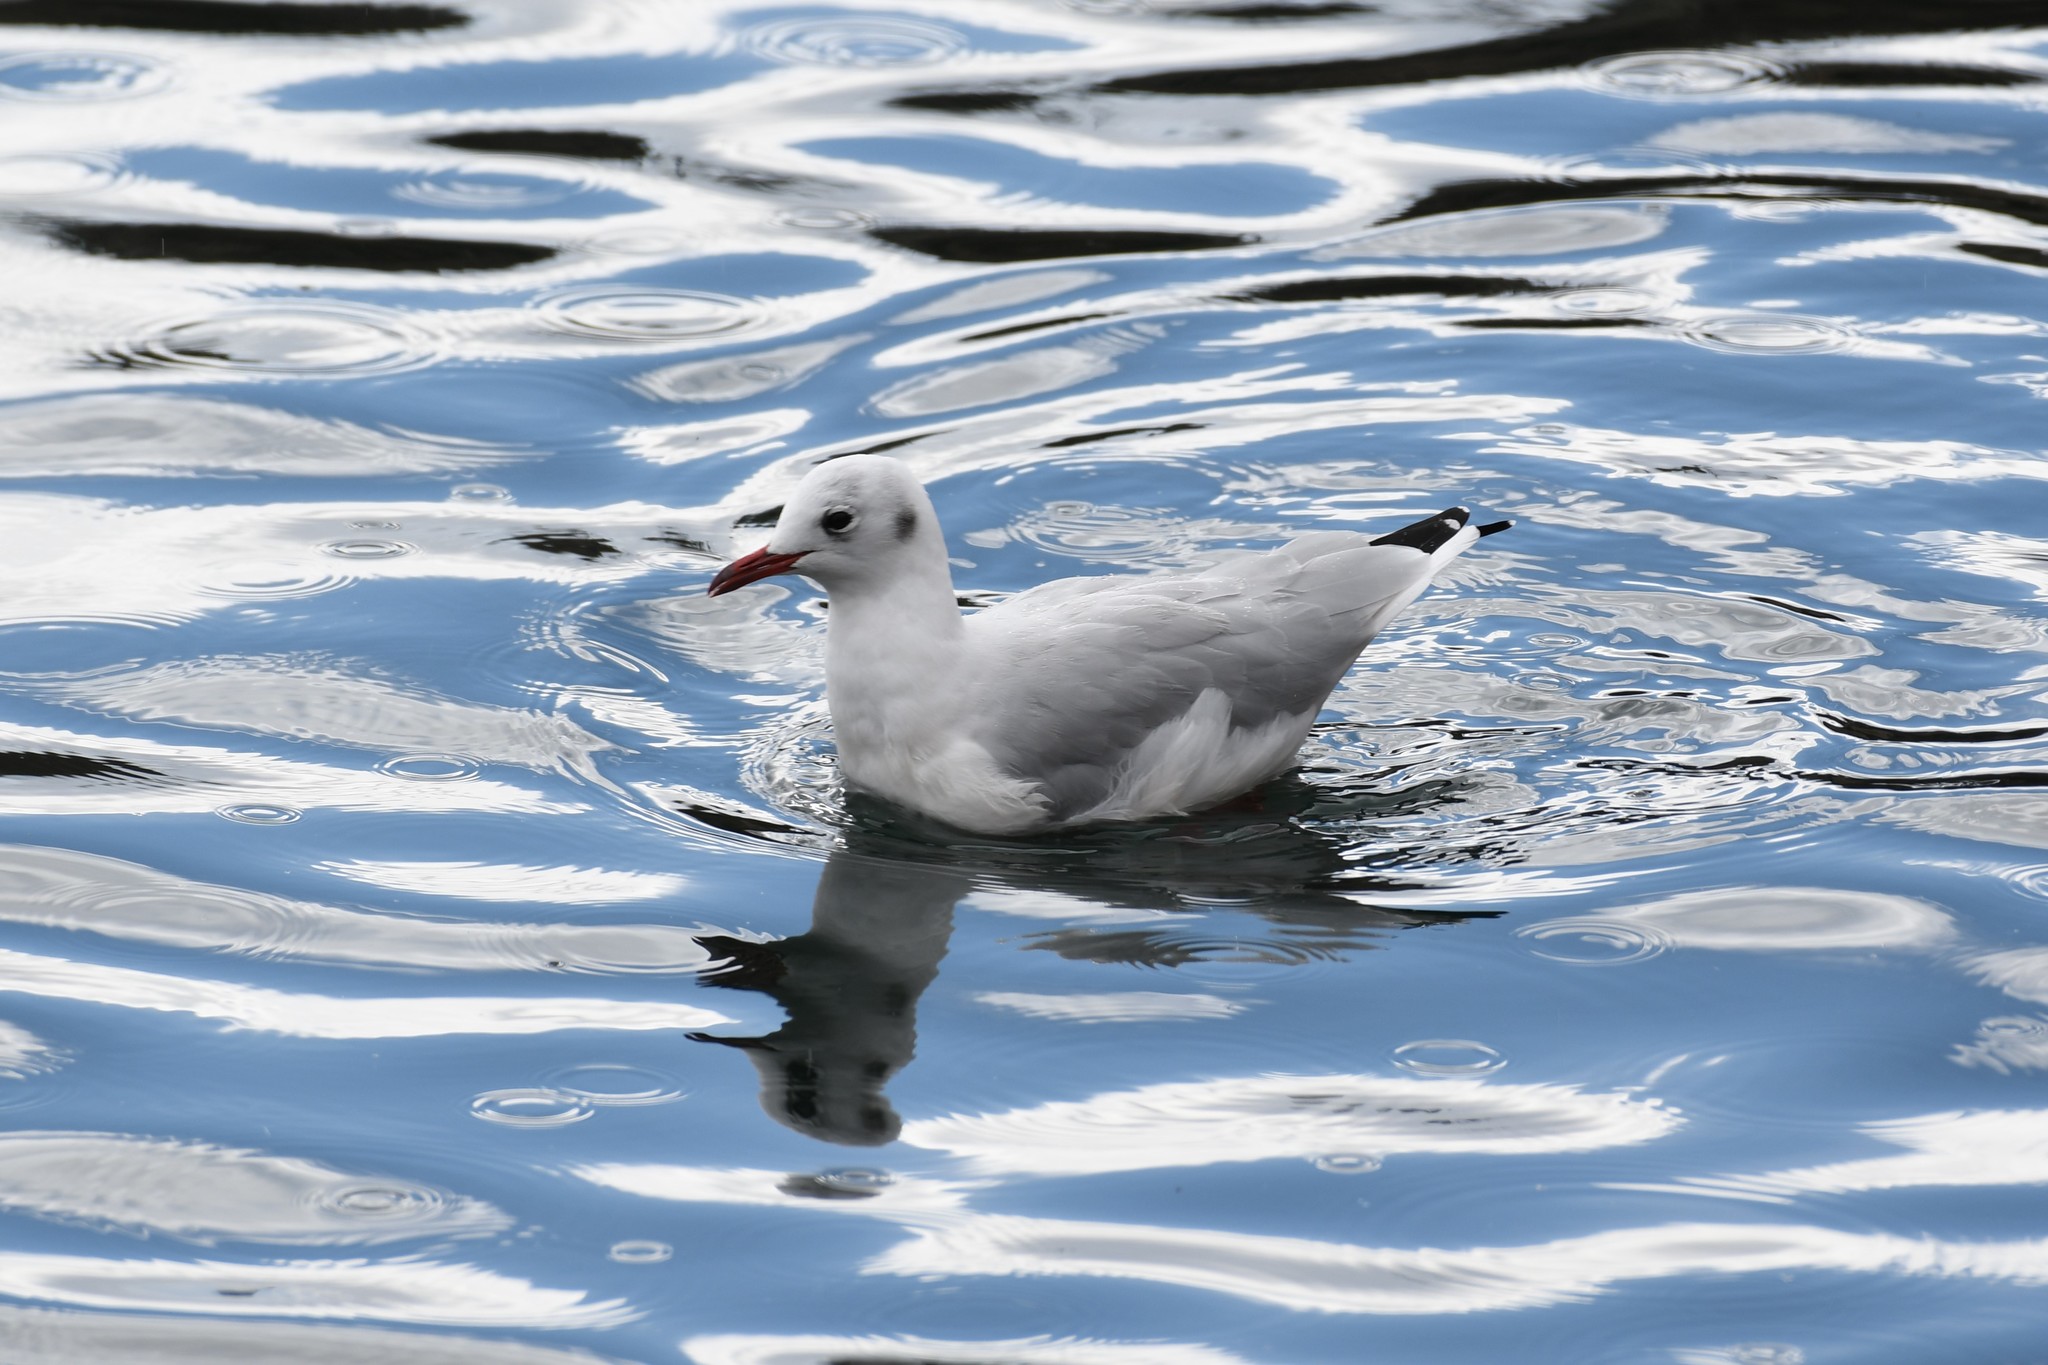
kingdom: Animalia
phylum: Chordata
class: Aves
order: Charadriiformes
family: Laridae
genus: Chroicocephalus
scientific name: Chroicocephalus ridibundus
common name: Black-headed gull
